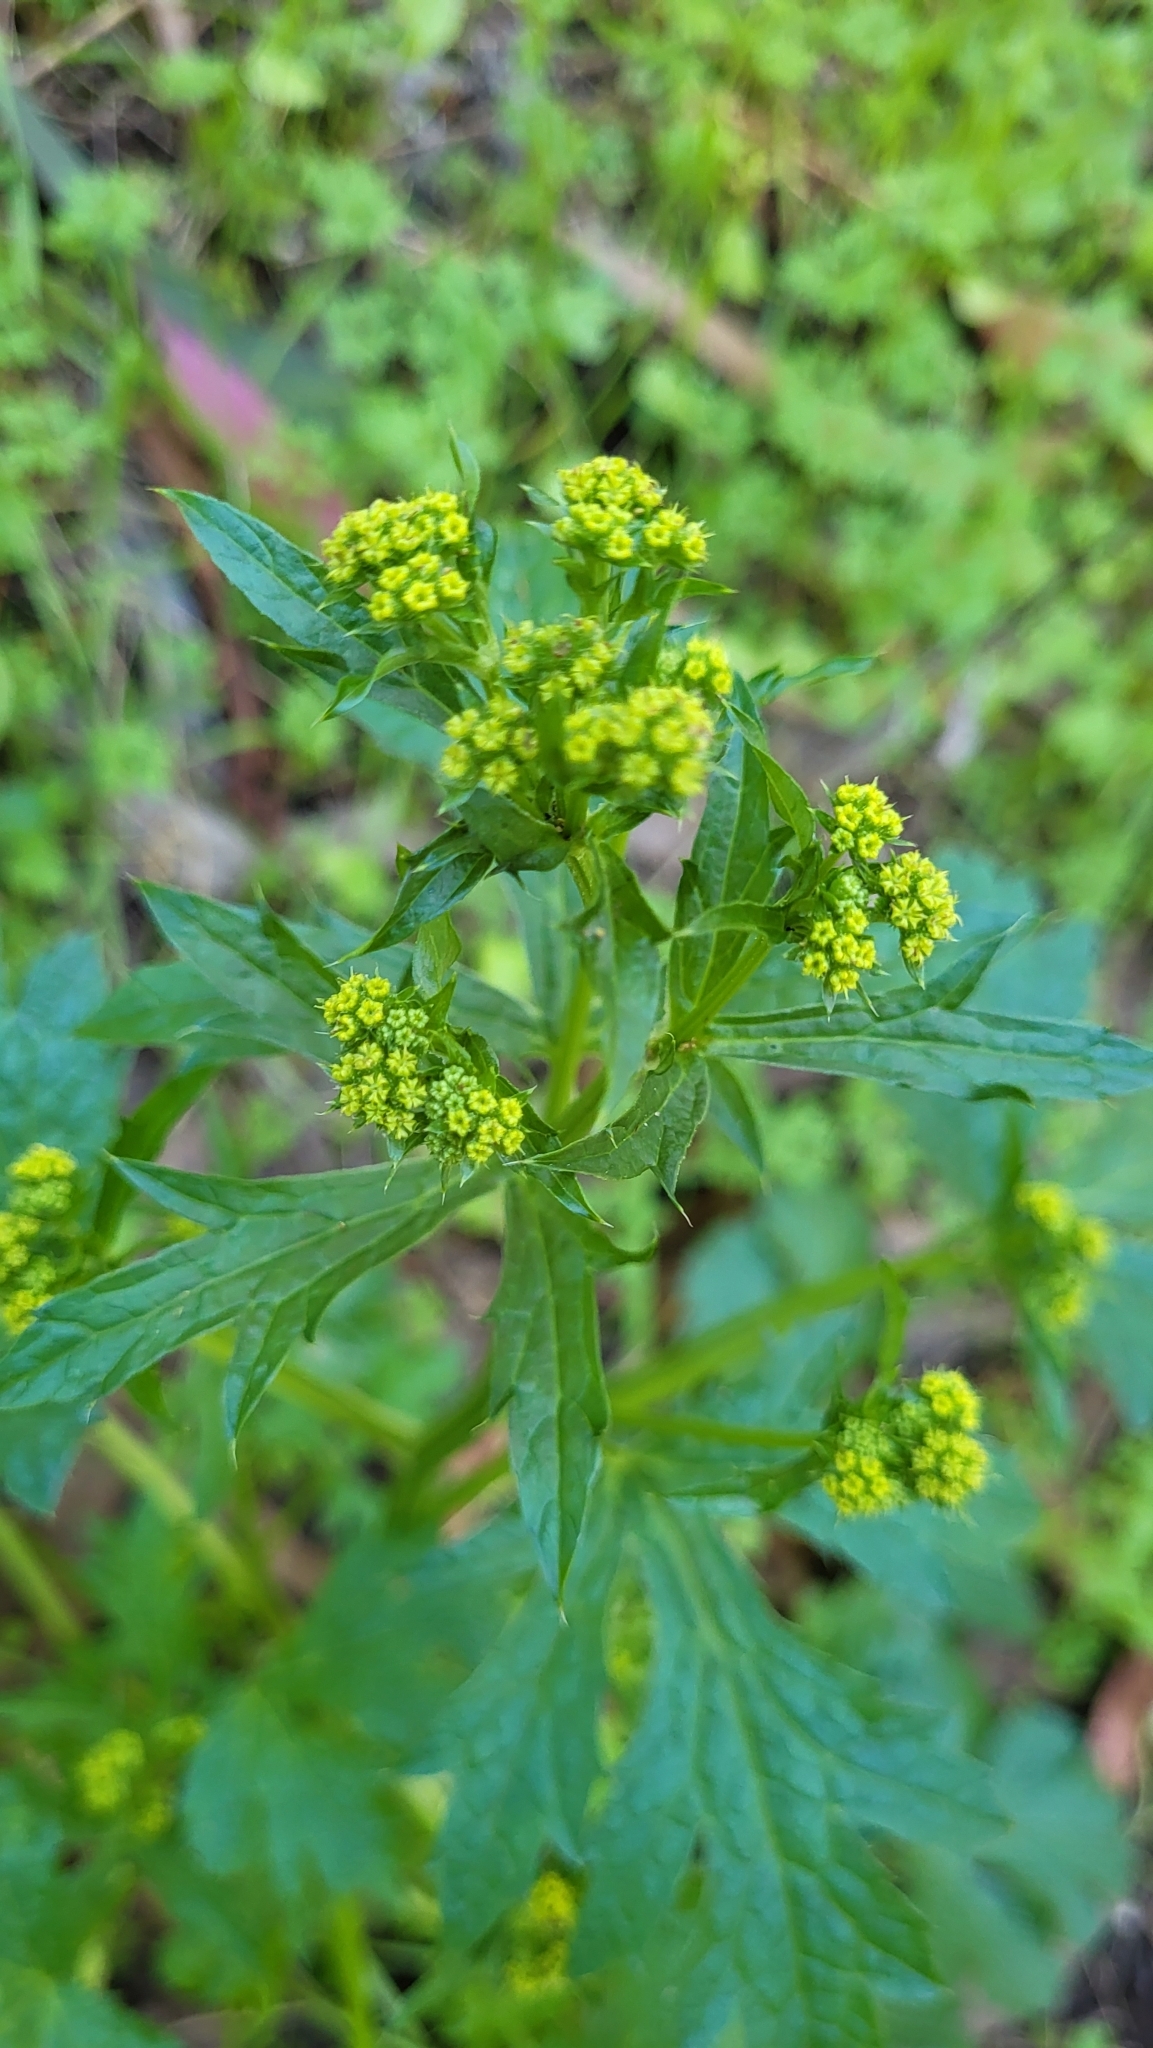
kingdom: Plantae
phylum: Tracheophyta
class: Magnoliopsida
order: Apiales
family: Apiaceae
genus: Sanicula
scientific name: Sanicula crassicaulis
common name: Western snakeroot
